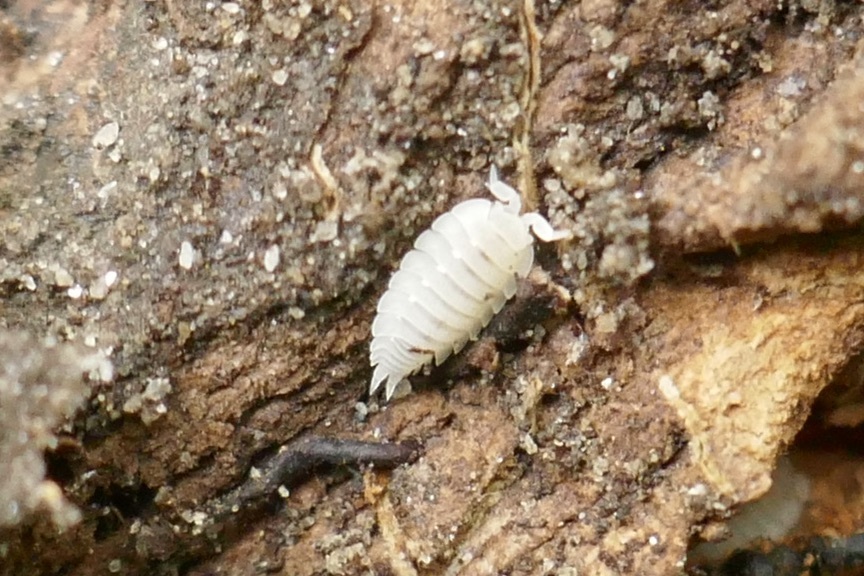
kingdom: Animalia
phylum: Arthropoda
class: Malacostraca
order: Isopoda
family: Platyarthridae
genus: Platyarthrus
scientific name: Platyarthrus hoffmannseggii
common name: Ant woodlouse
